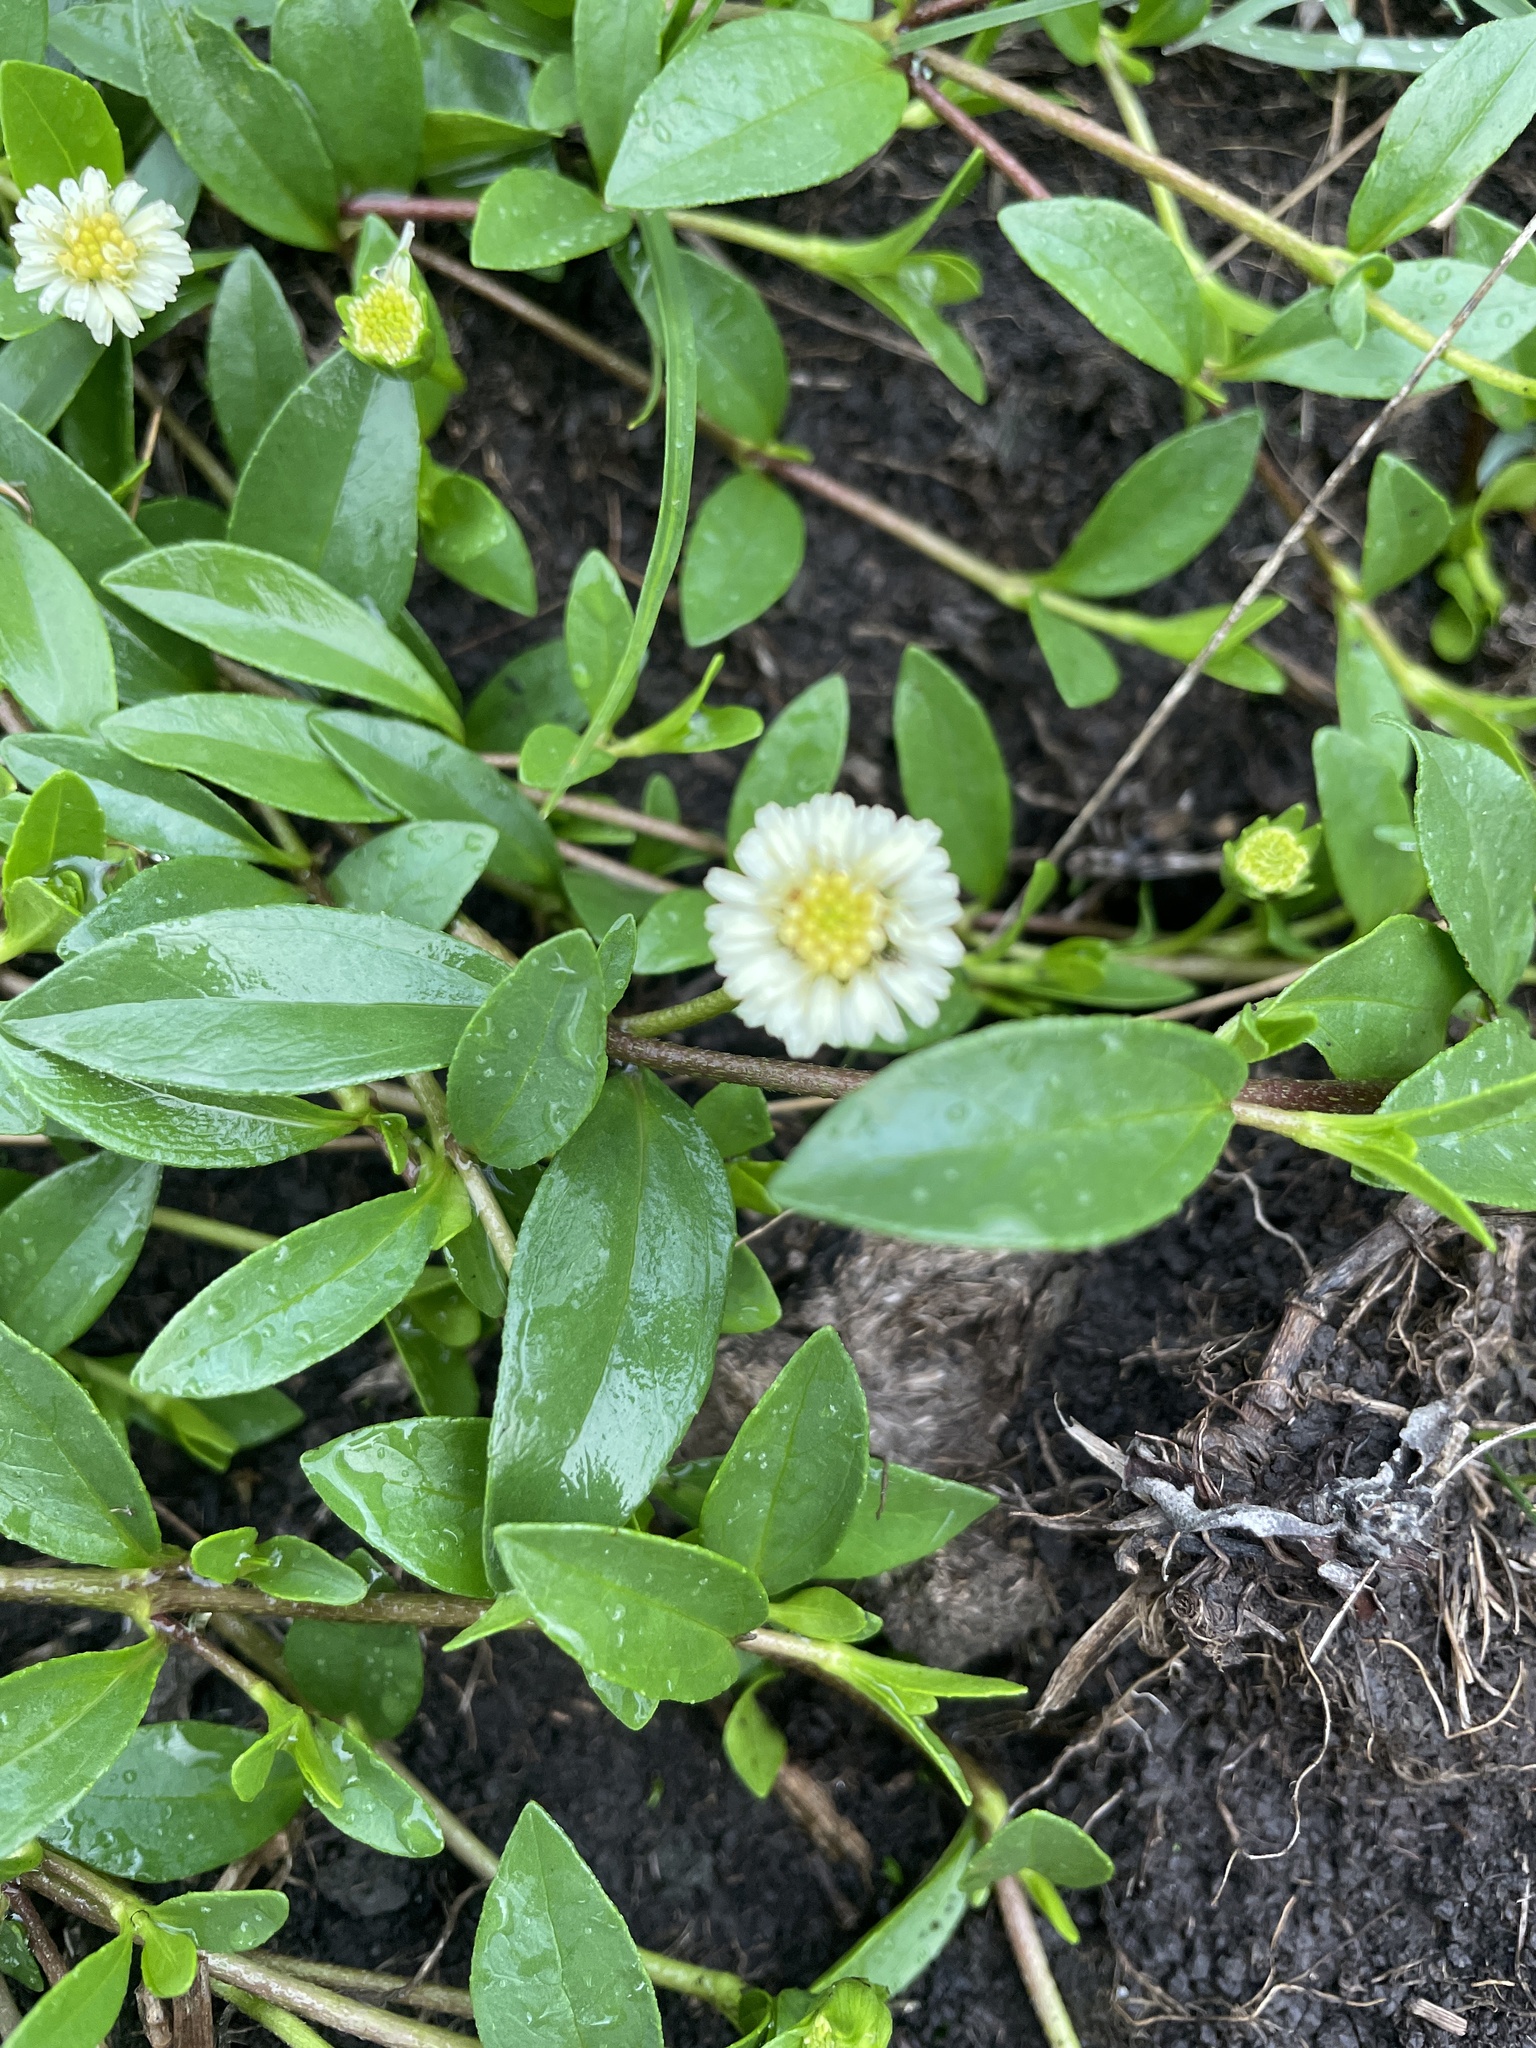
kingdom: Plantae
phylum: Tracheophyta
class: Magnoliopsida
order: Asterales
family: Asteraceae
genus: Eclipta
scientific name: Eclipta elliptica
